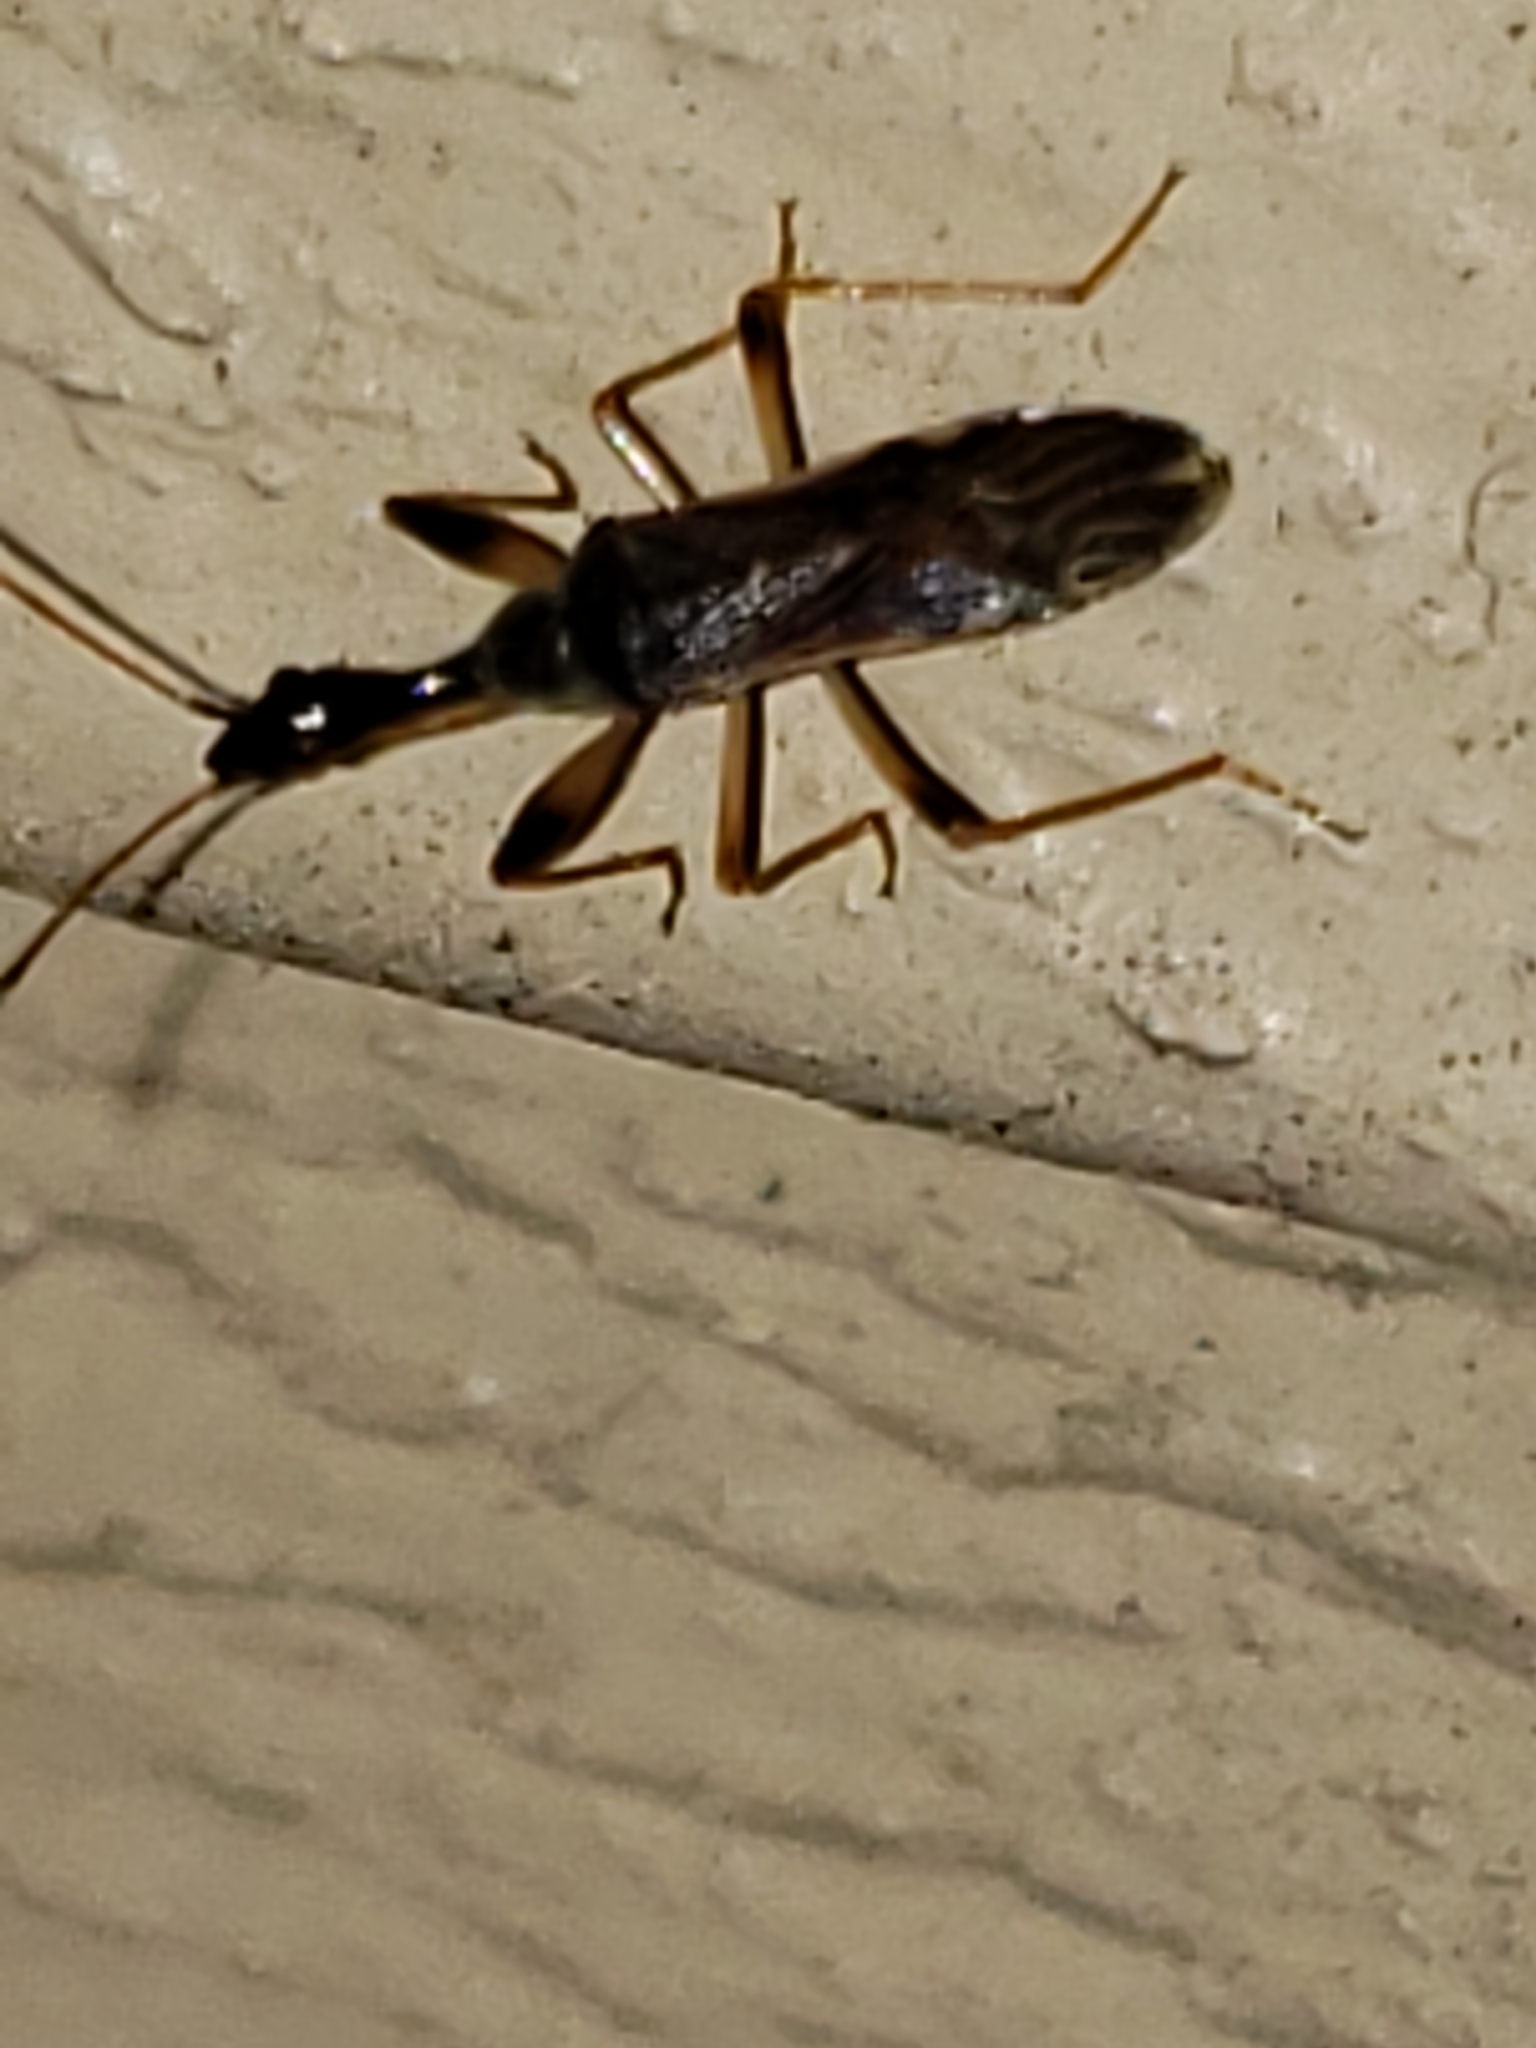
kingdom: Animalia
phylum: Arthropoda
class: Insecta
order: Hemiptera
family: Rhyparochromidae
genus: Myodocha
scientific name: Myodocha serripes
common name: Long-necked seed bug
